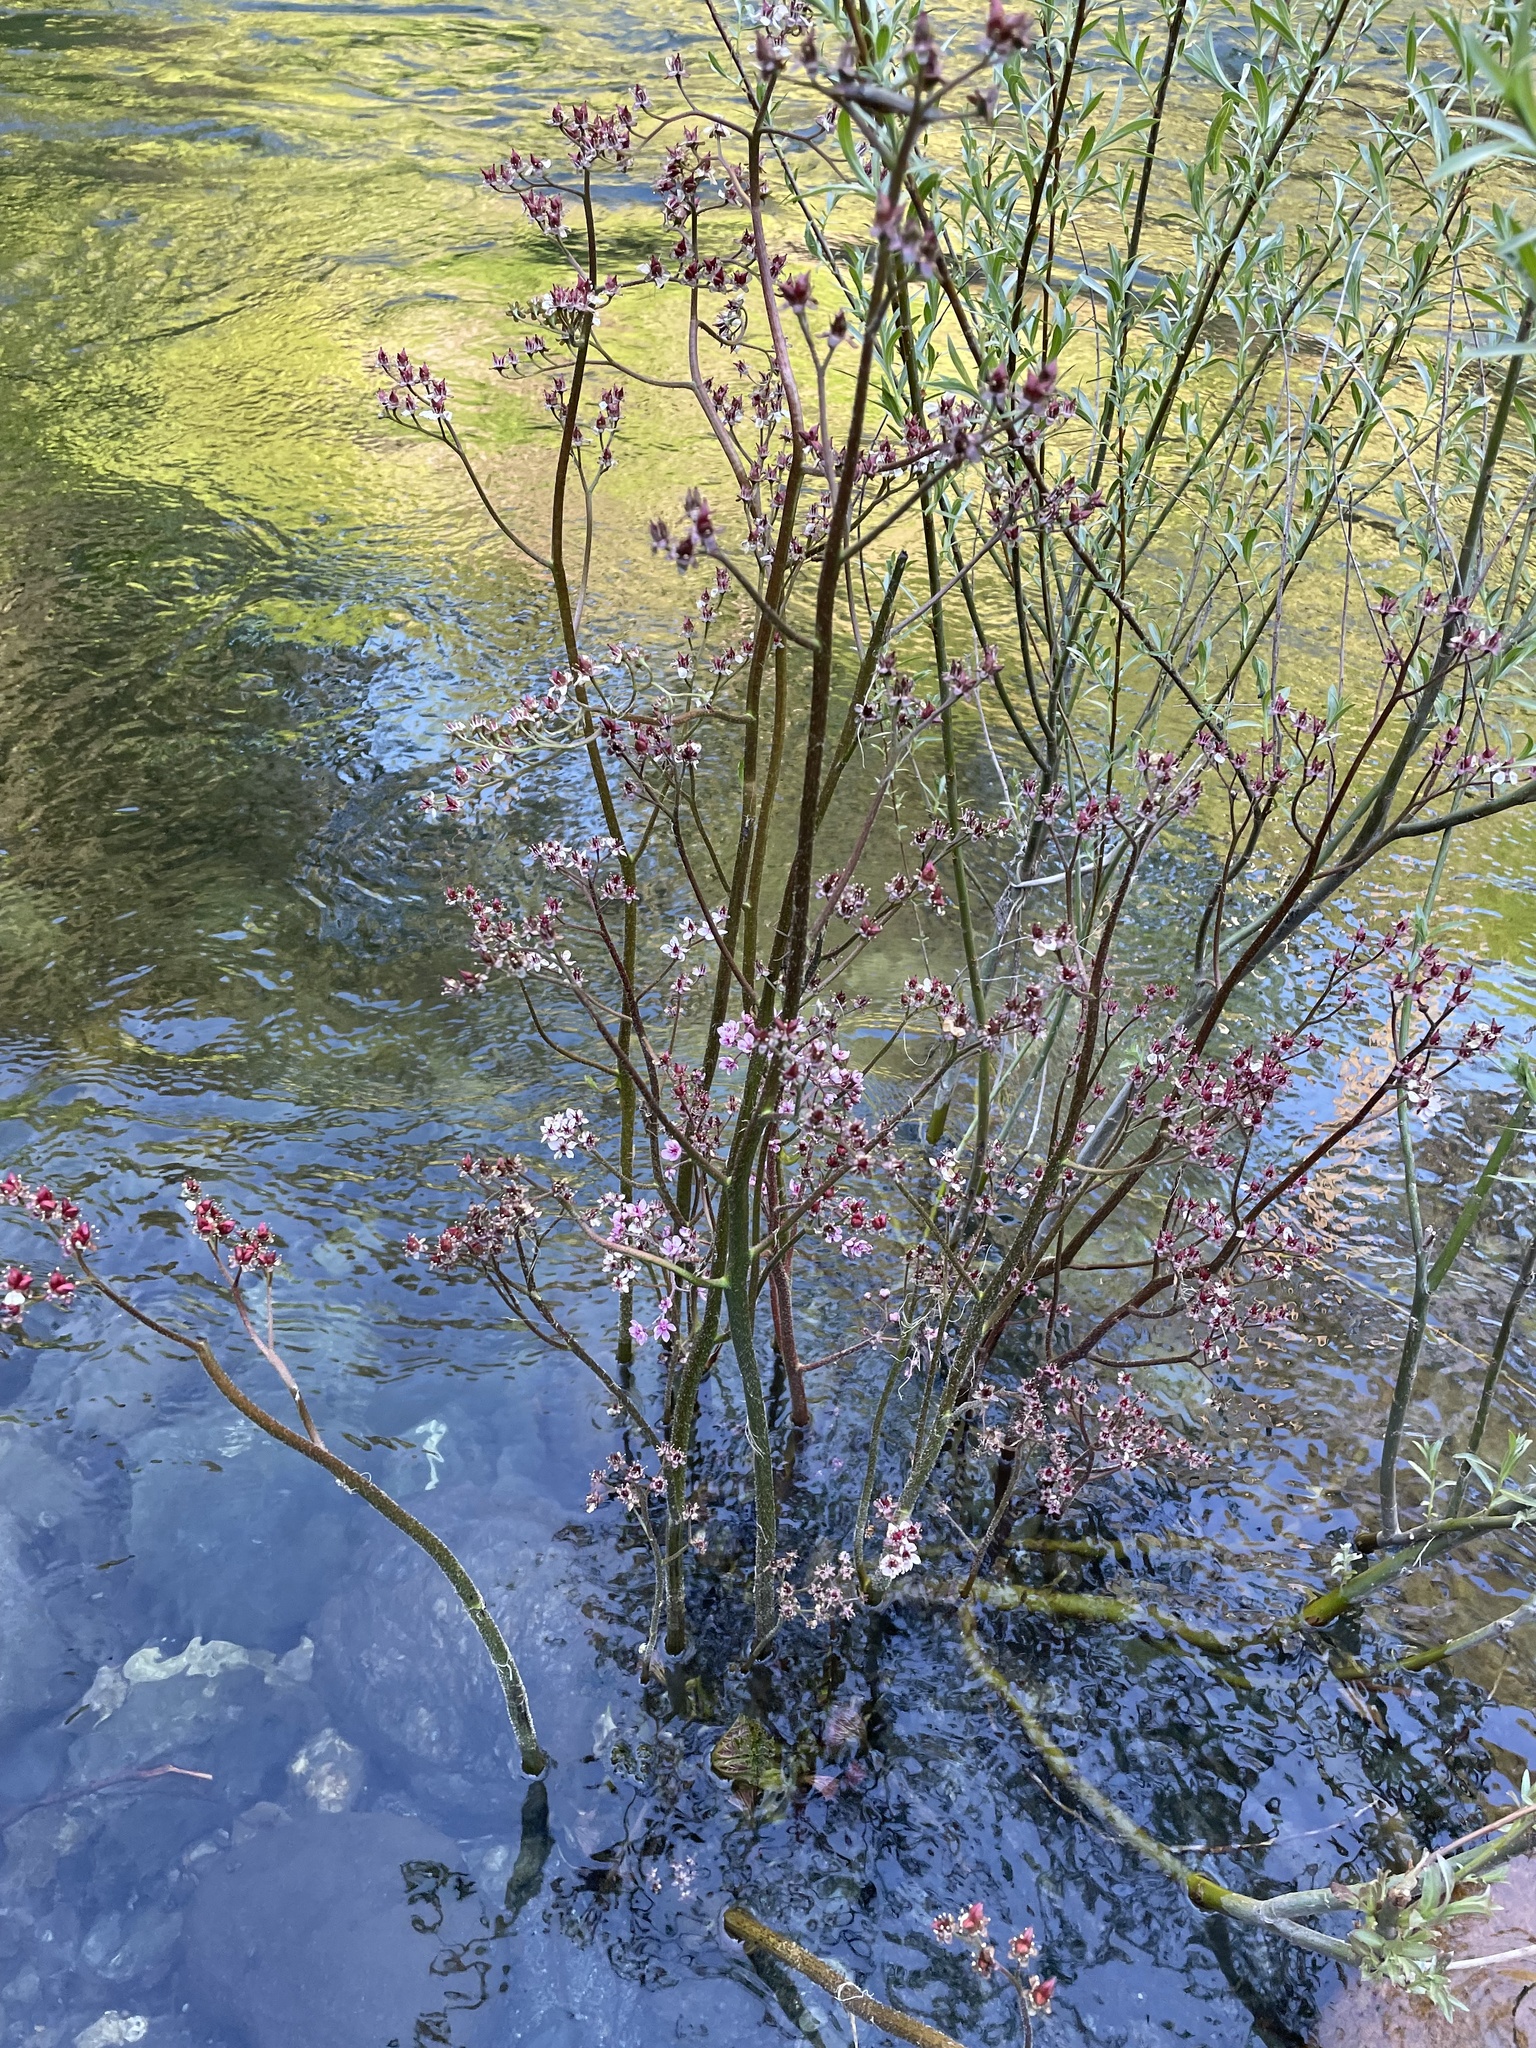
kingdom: Plantae
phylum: Tracheophyta
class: Magnoliopsida
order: Saxifragales
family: Saxifragaceae
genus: Darmera
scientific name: Darmera peltata
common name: Indian-rhubarb
